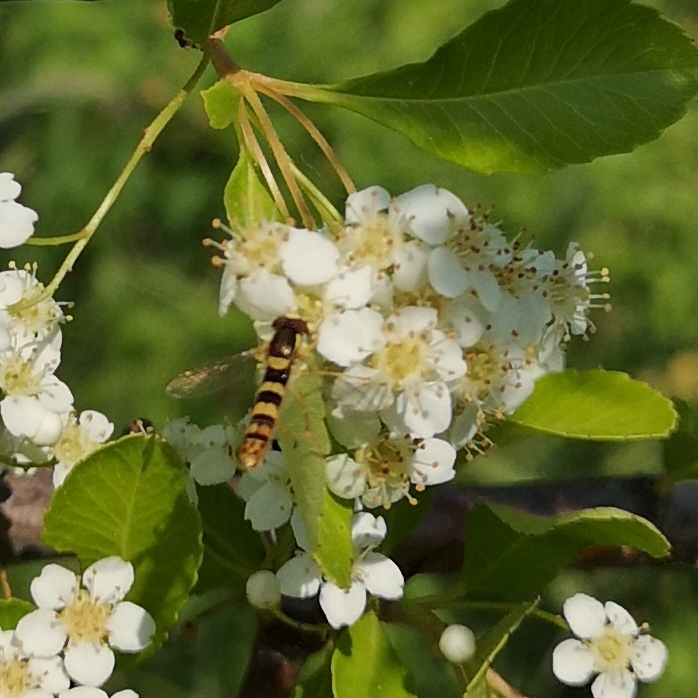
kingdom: Animalia
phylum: Arthropoda
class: Insecta
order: Diptera
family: Syrphidae
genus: Sphaerophoria
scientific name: Sphaerophoria scripta
